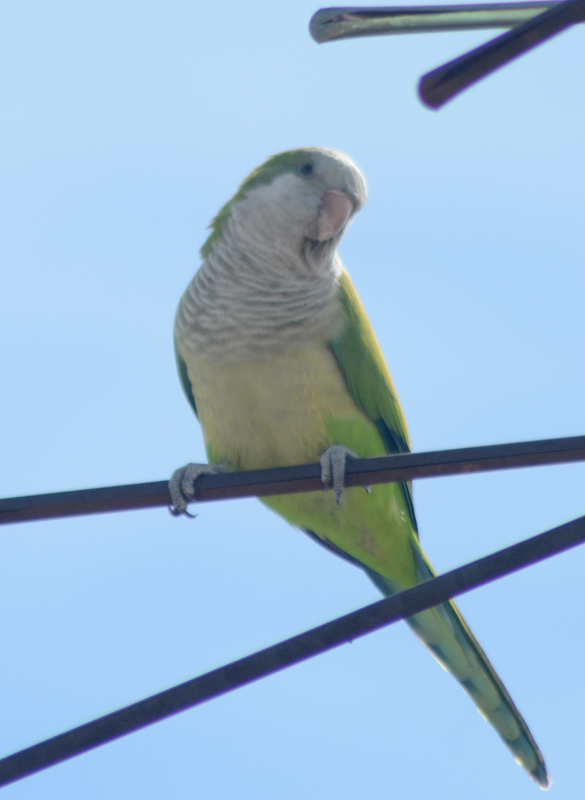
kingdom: Animalia
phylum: Chordata
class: Aves
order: Psittaciformes
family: Psittacidae
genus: Myiopsitta
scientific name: Myiopsitta monachus
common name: Monk parakeet
